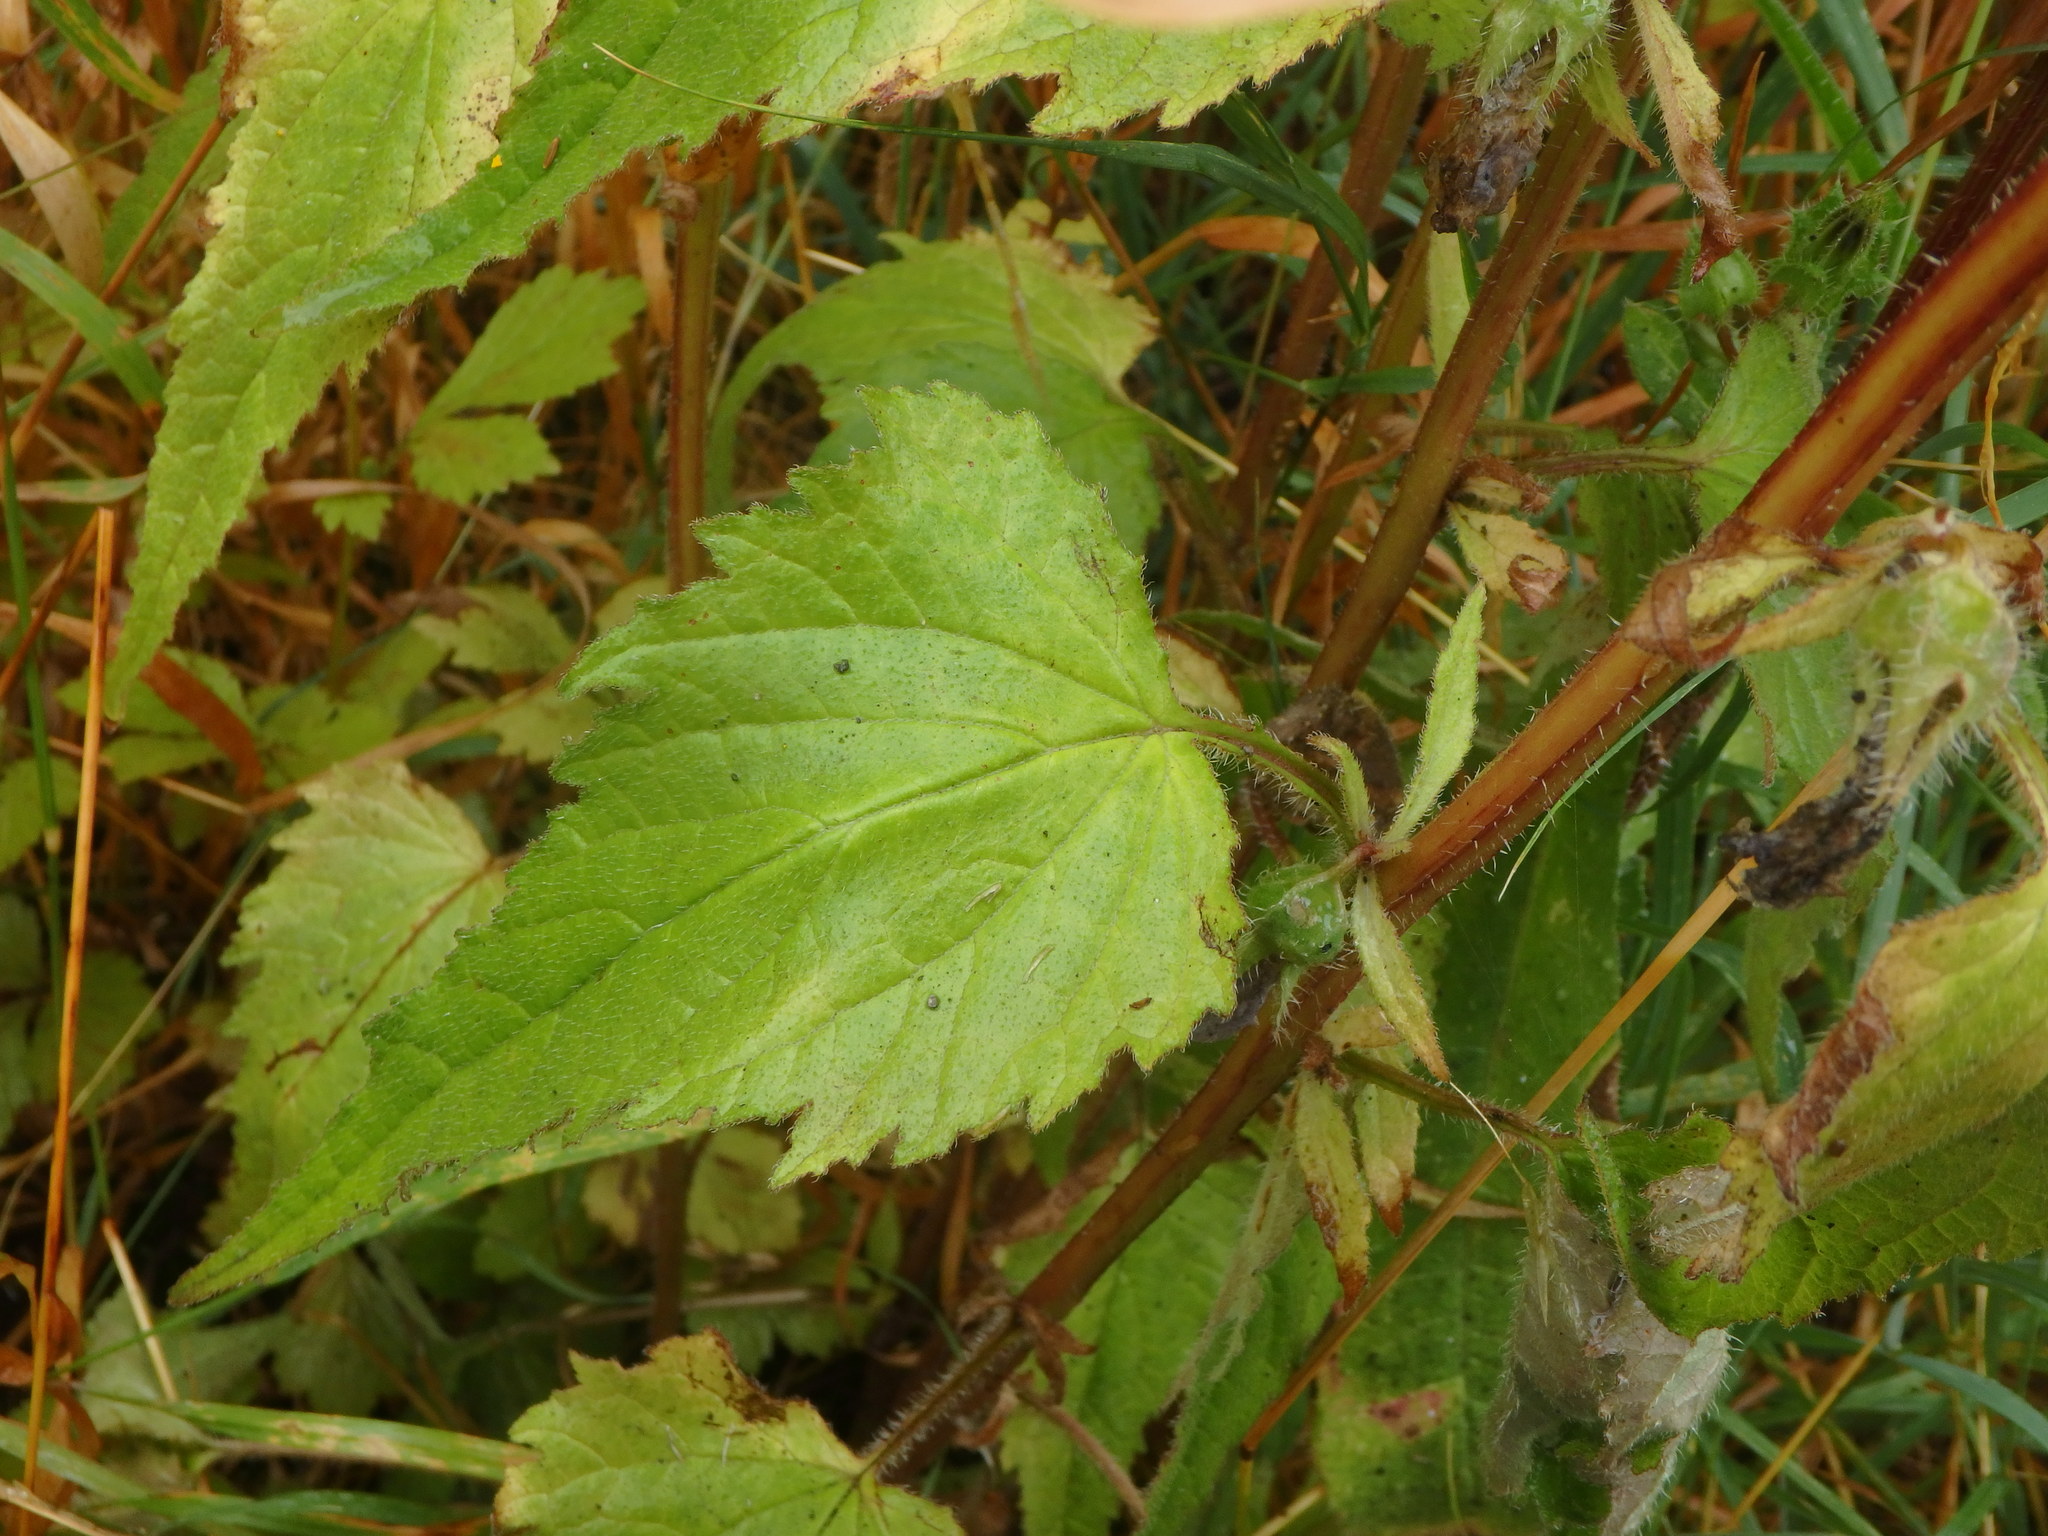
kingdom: Plantae
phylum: Tracheophyta
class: Magnoliopsida
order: Asterales
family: Campanulaceae
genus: Campanula
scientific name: Campanula trachelium
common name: Nettle-leaved bellflower
